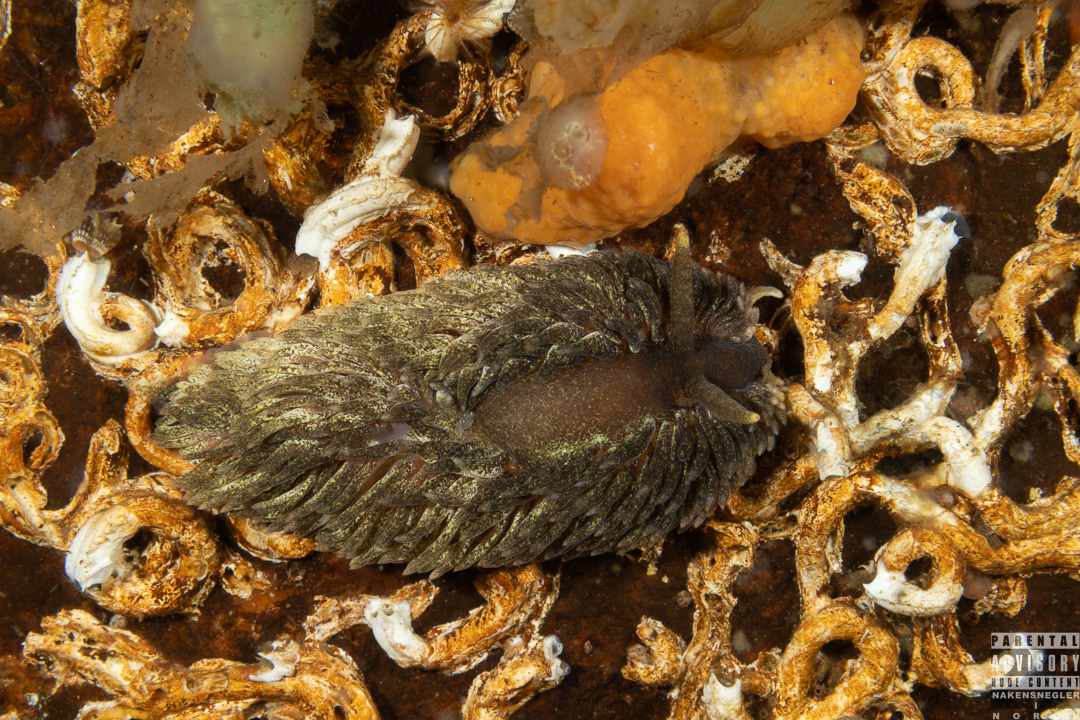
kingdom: Animalia
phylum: Mollusca
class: Gastropoda
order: Nudibranchia
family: Aeolidiidae
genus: Aeolidia
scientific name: Aeolidia papillosa
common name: Common grey sea slug
